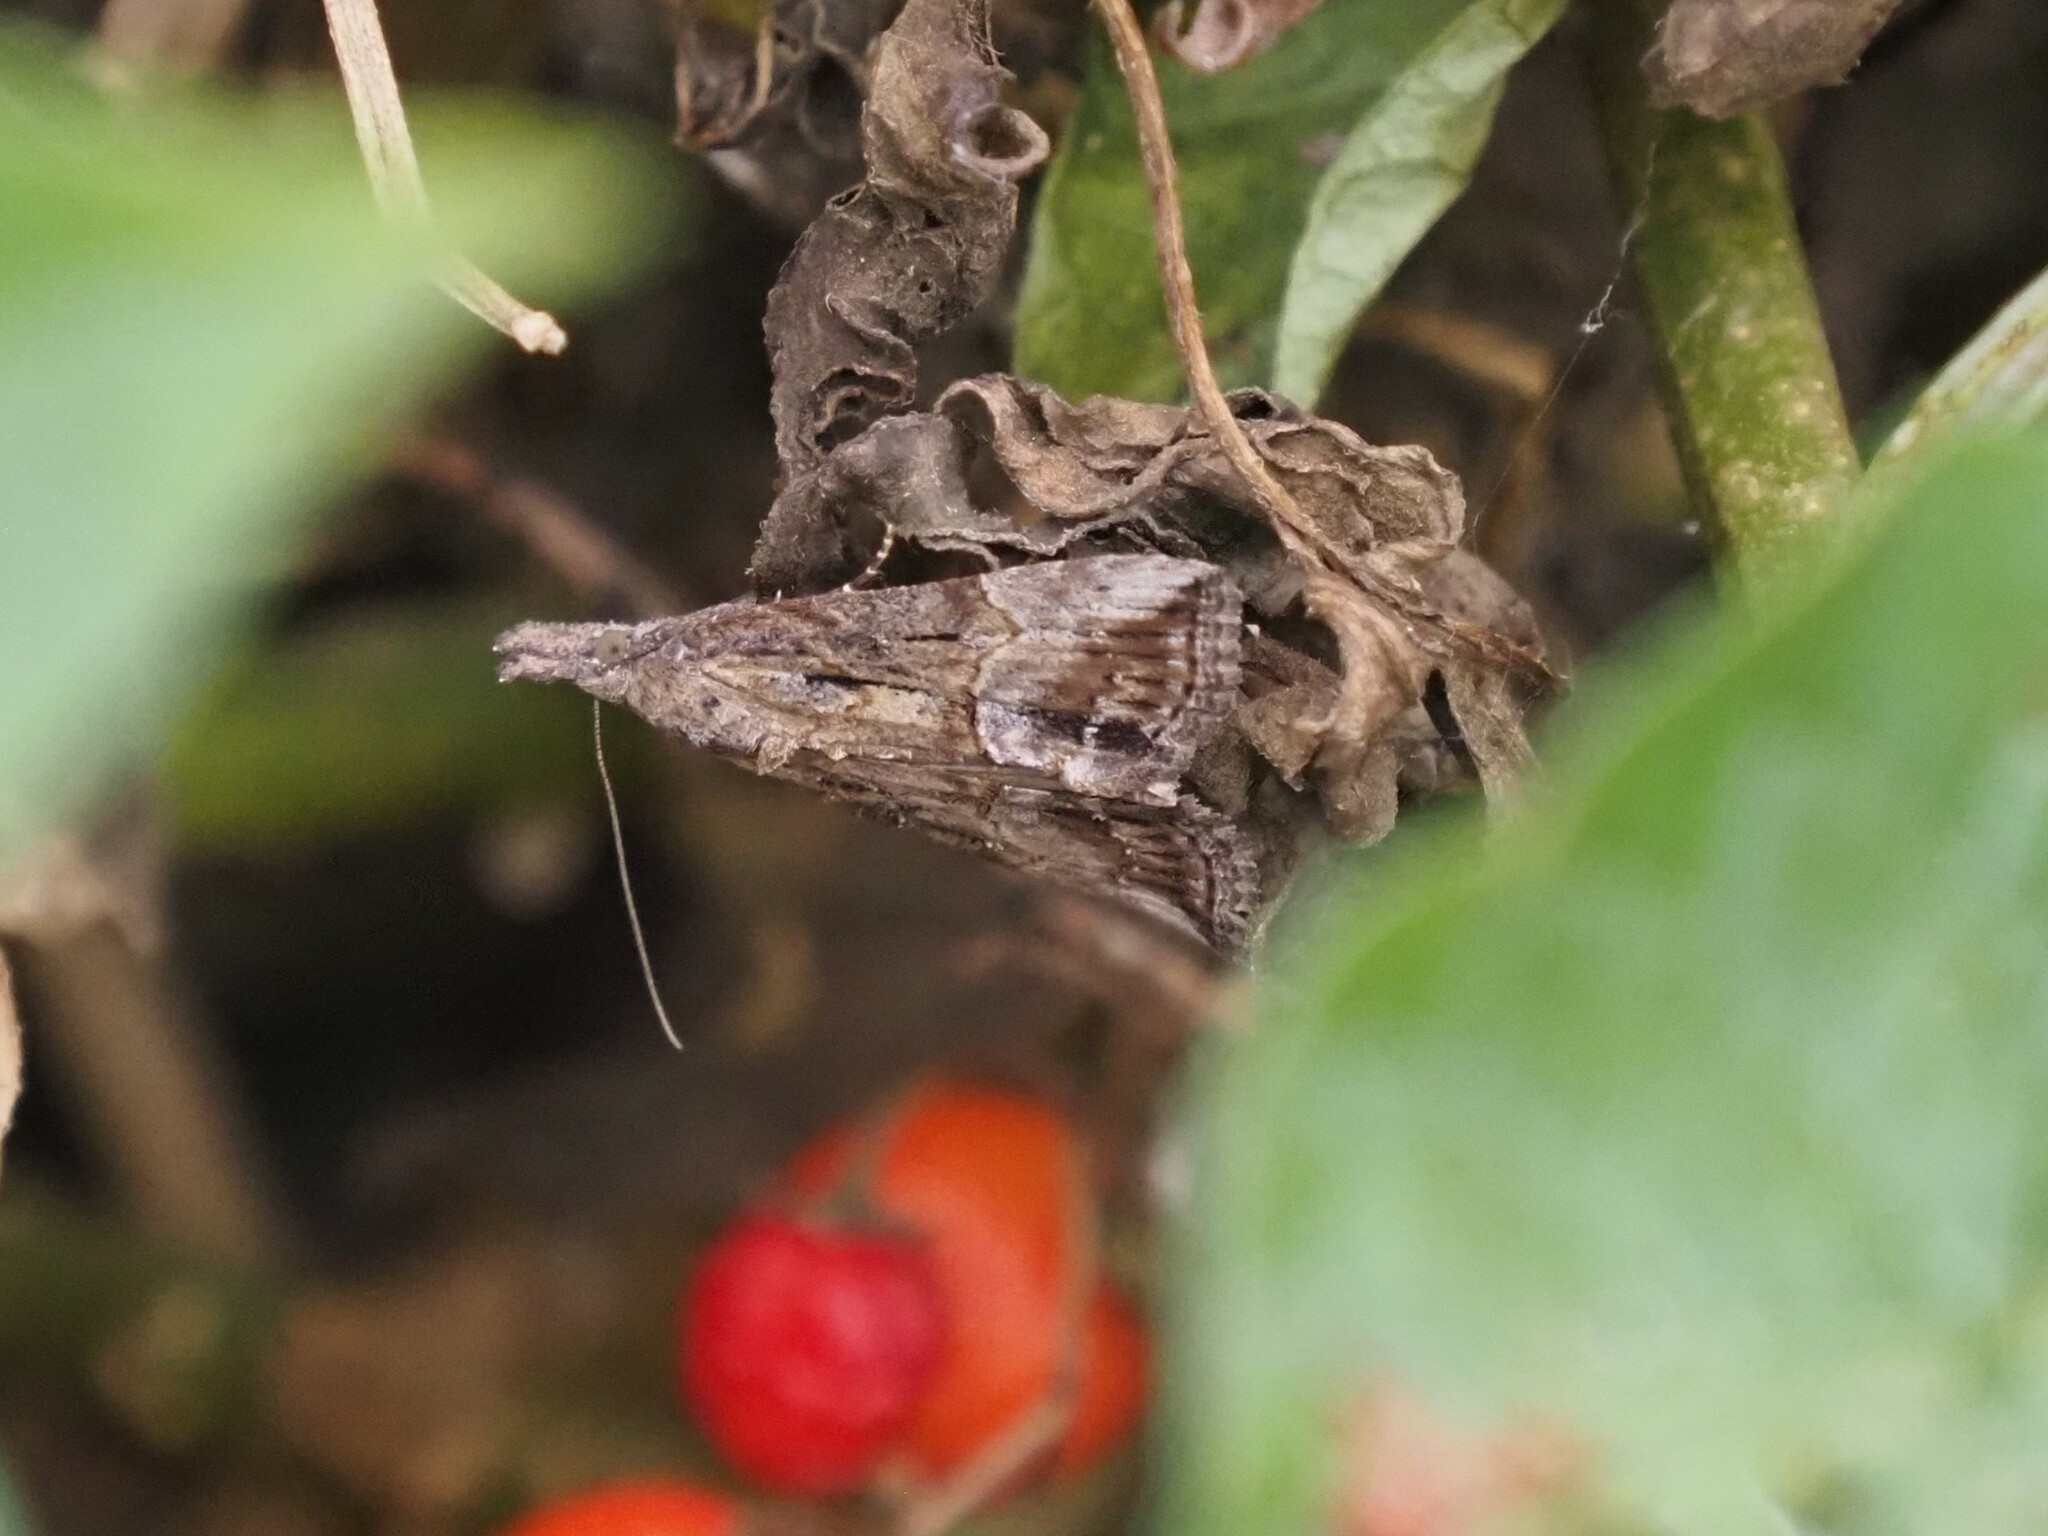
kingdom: Animalia
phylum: Arthropoda
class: Insecta
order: Lepidoptera
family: Erebidae
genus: Hypena
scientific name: Hypena scabra
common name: Green cloverworm
